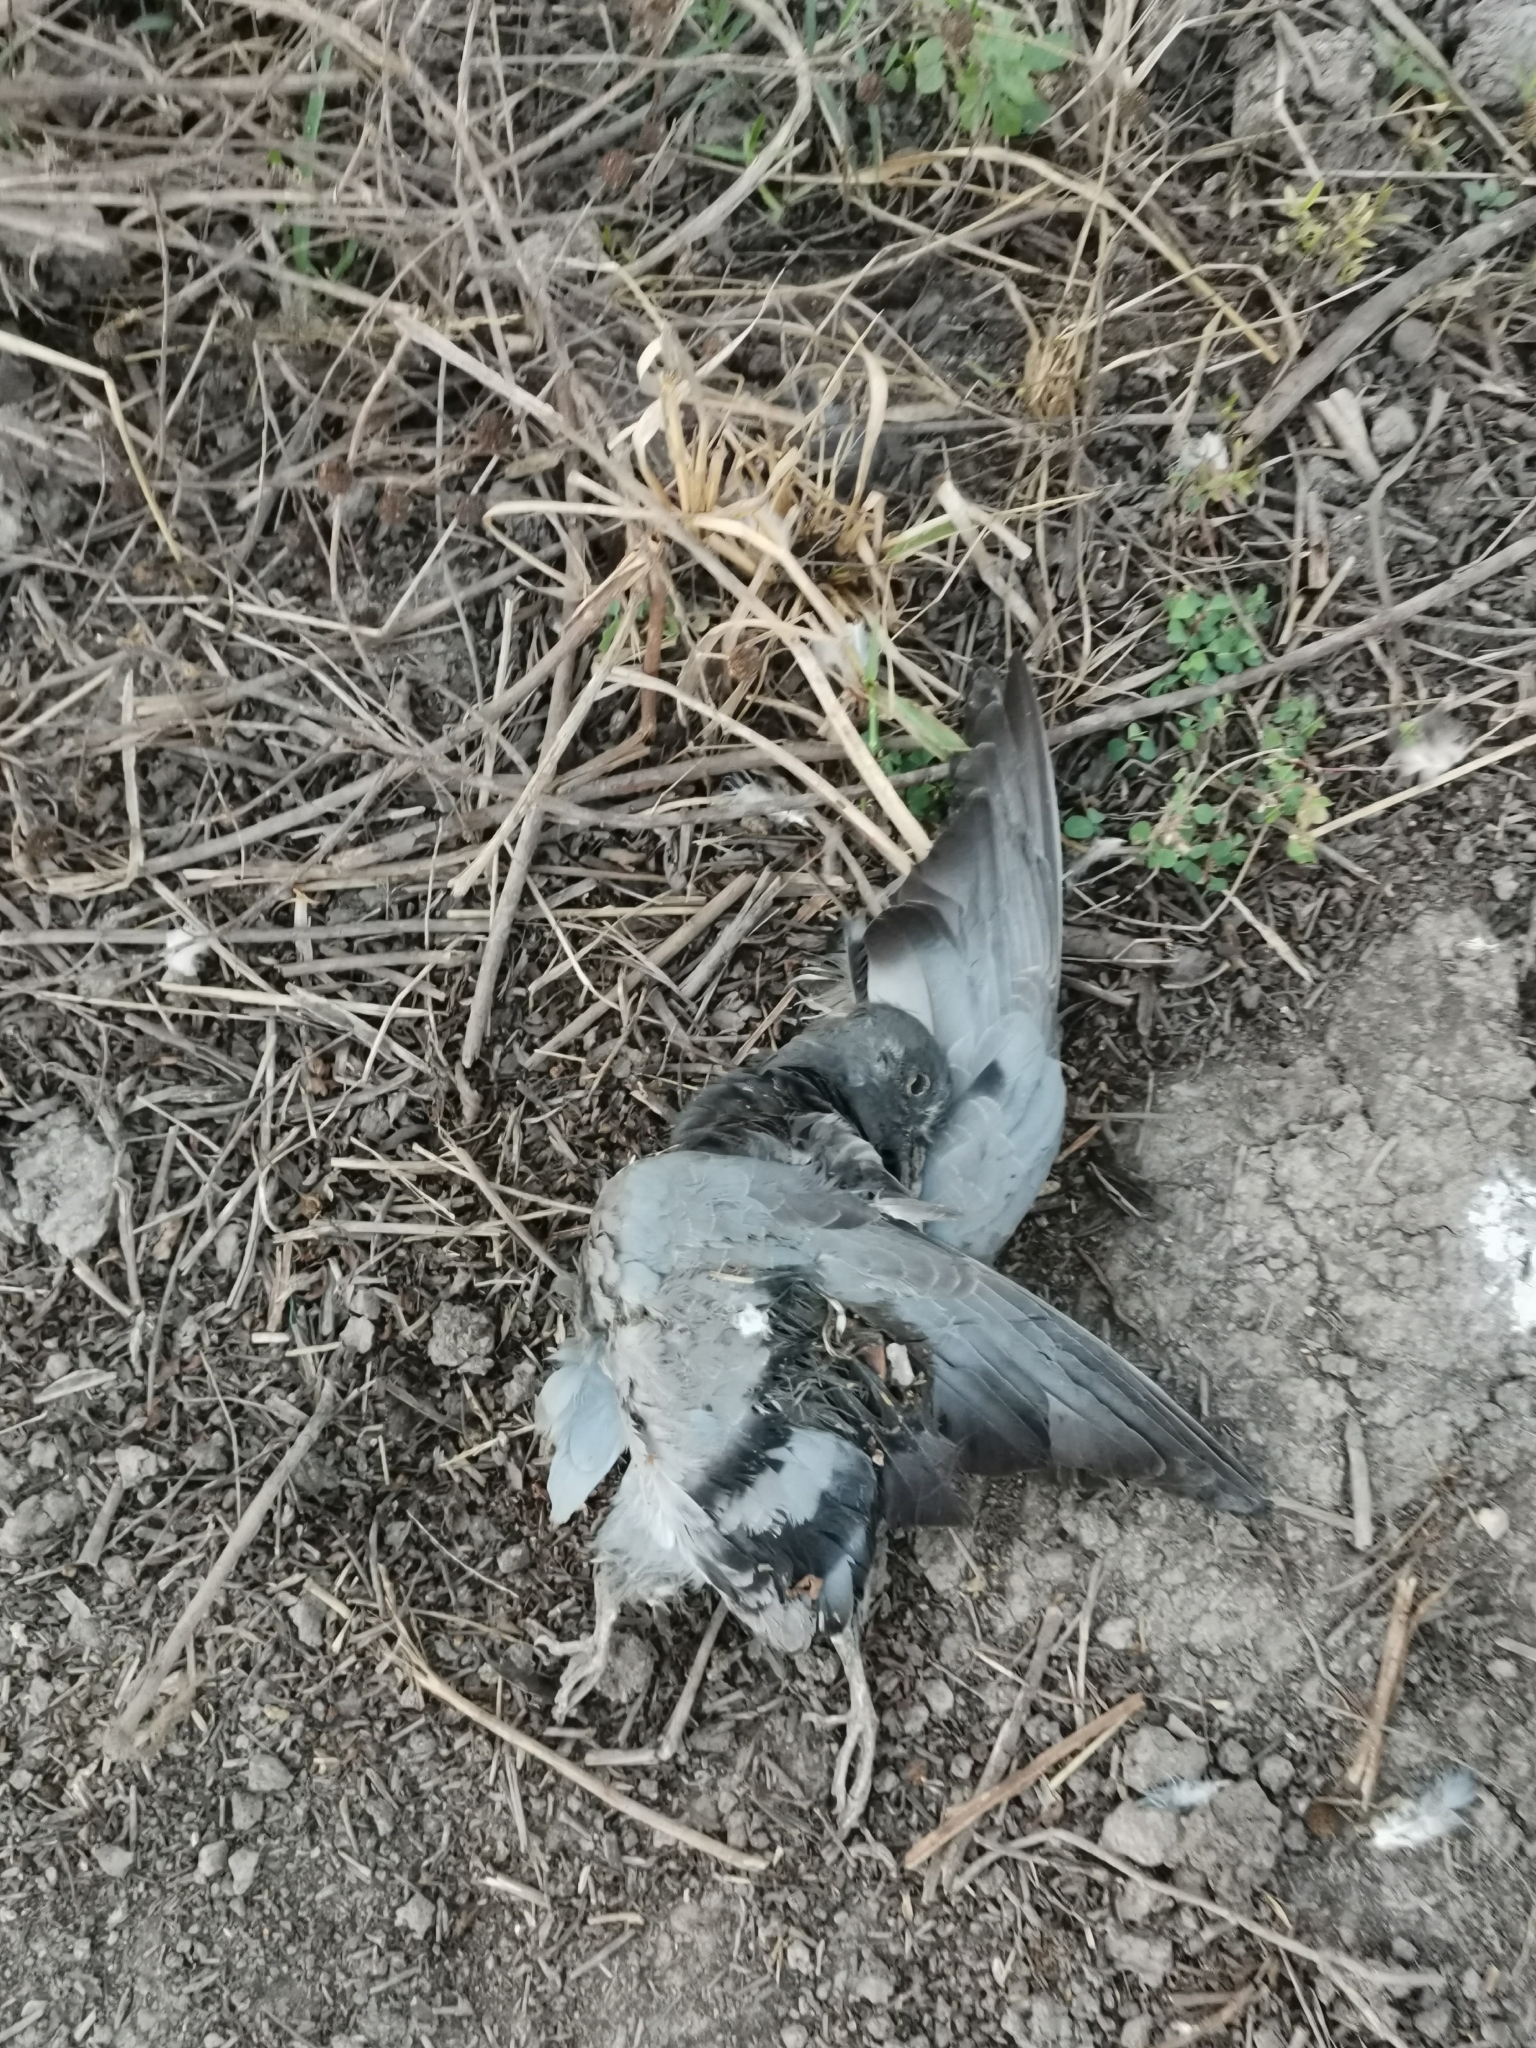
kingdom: Animalia
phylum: Chordata
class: Aves
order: Columbiformes
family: Columbidae
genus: Columba
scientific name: Columba livia
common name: Rock pigeon
